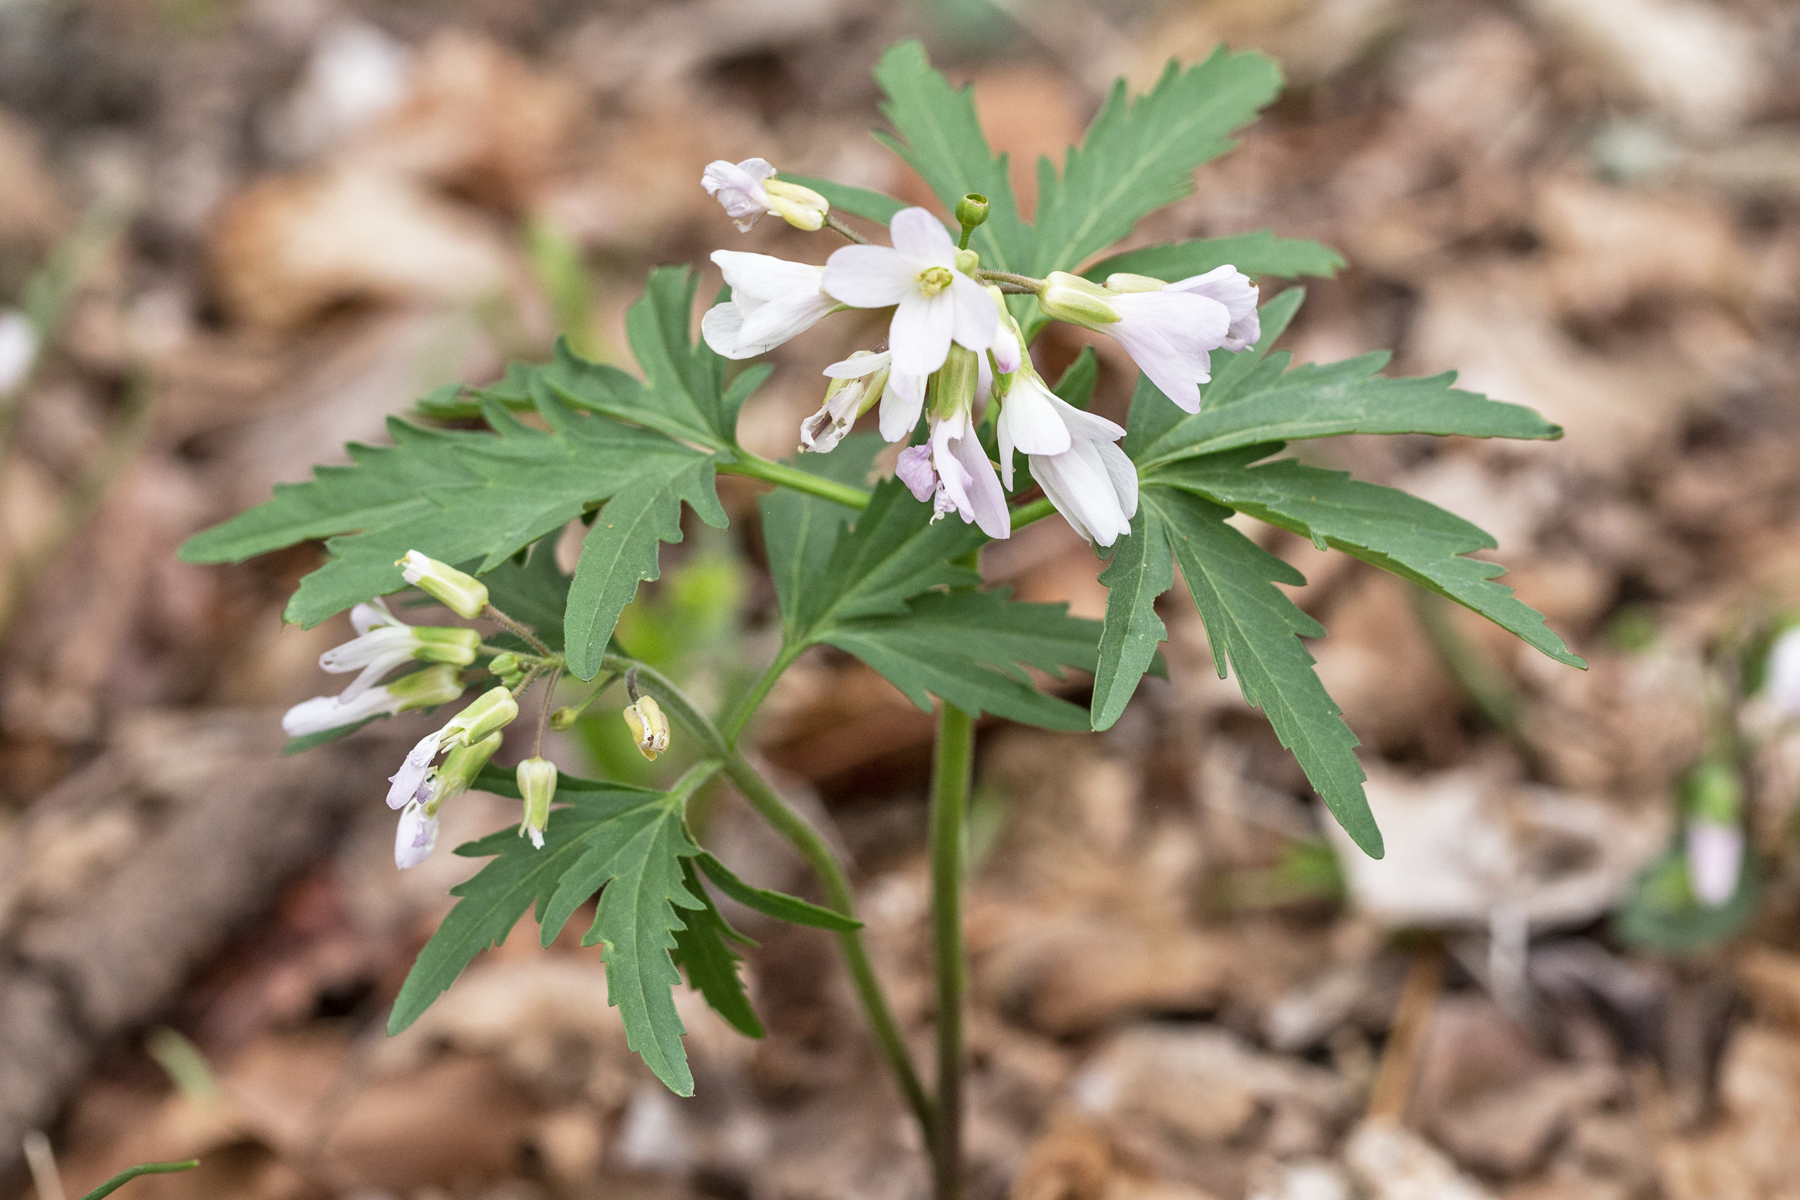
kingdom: Plantae
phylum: Tracheophyta
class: Magnoliopsida
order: Brassicales
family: Brassicaceae
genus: Cardamine
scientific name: Cardamine concatenata
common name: Cut-leaf toothcup
